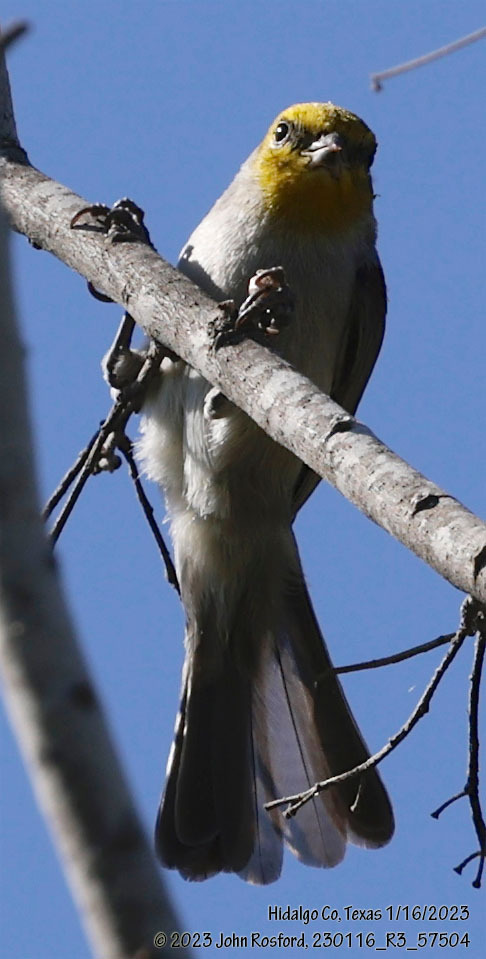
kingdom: Animalia
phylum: Chordata
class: Aves
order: Passeriformes
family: Remizidae
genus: Auriparus
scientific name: Auriparus flaviceps
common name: Verdin
